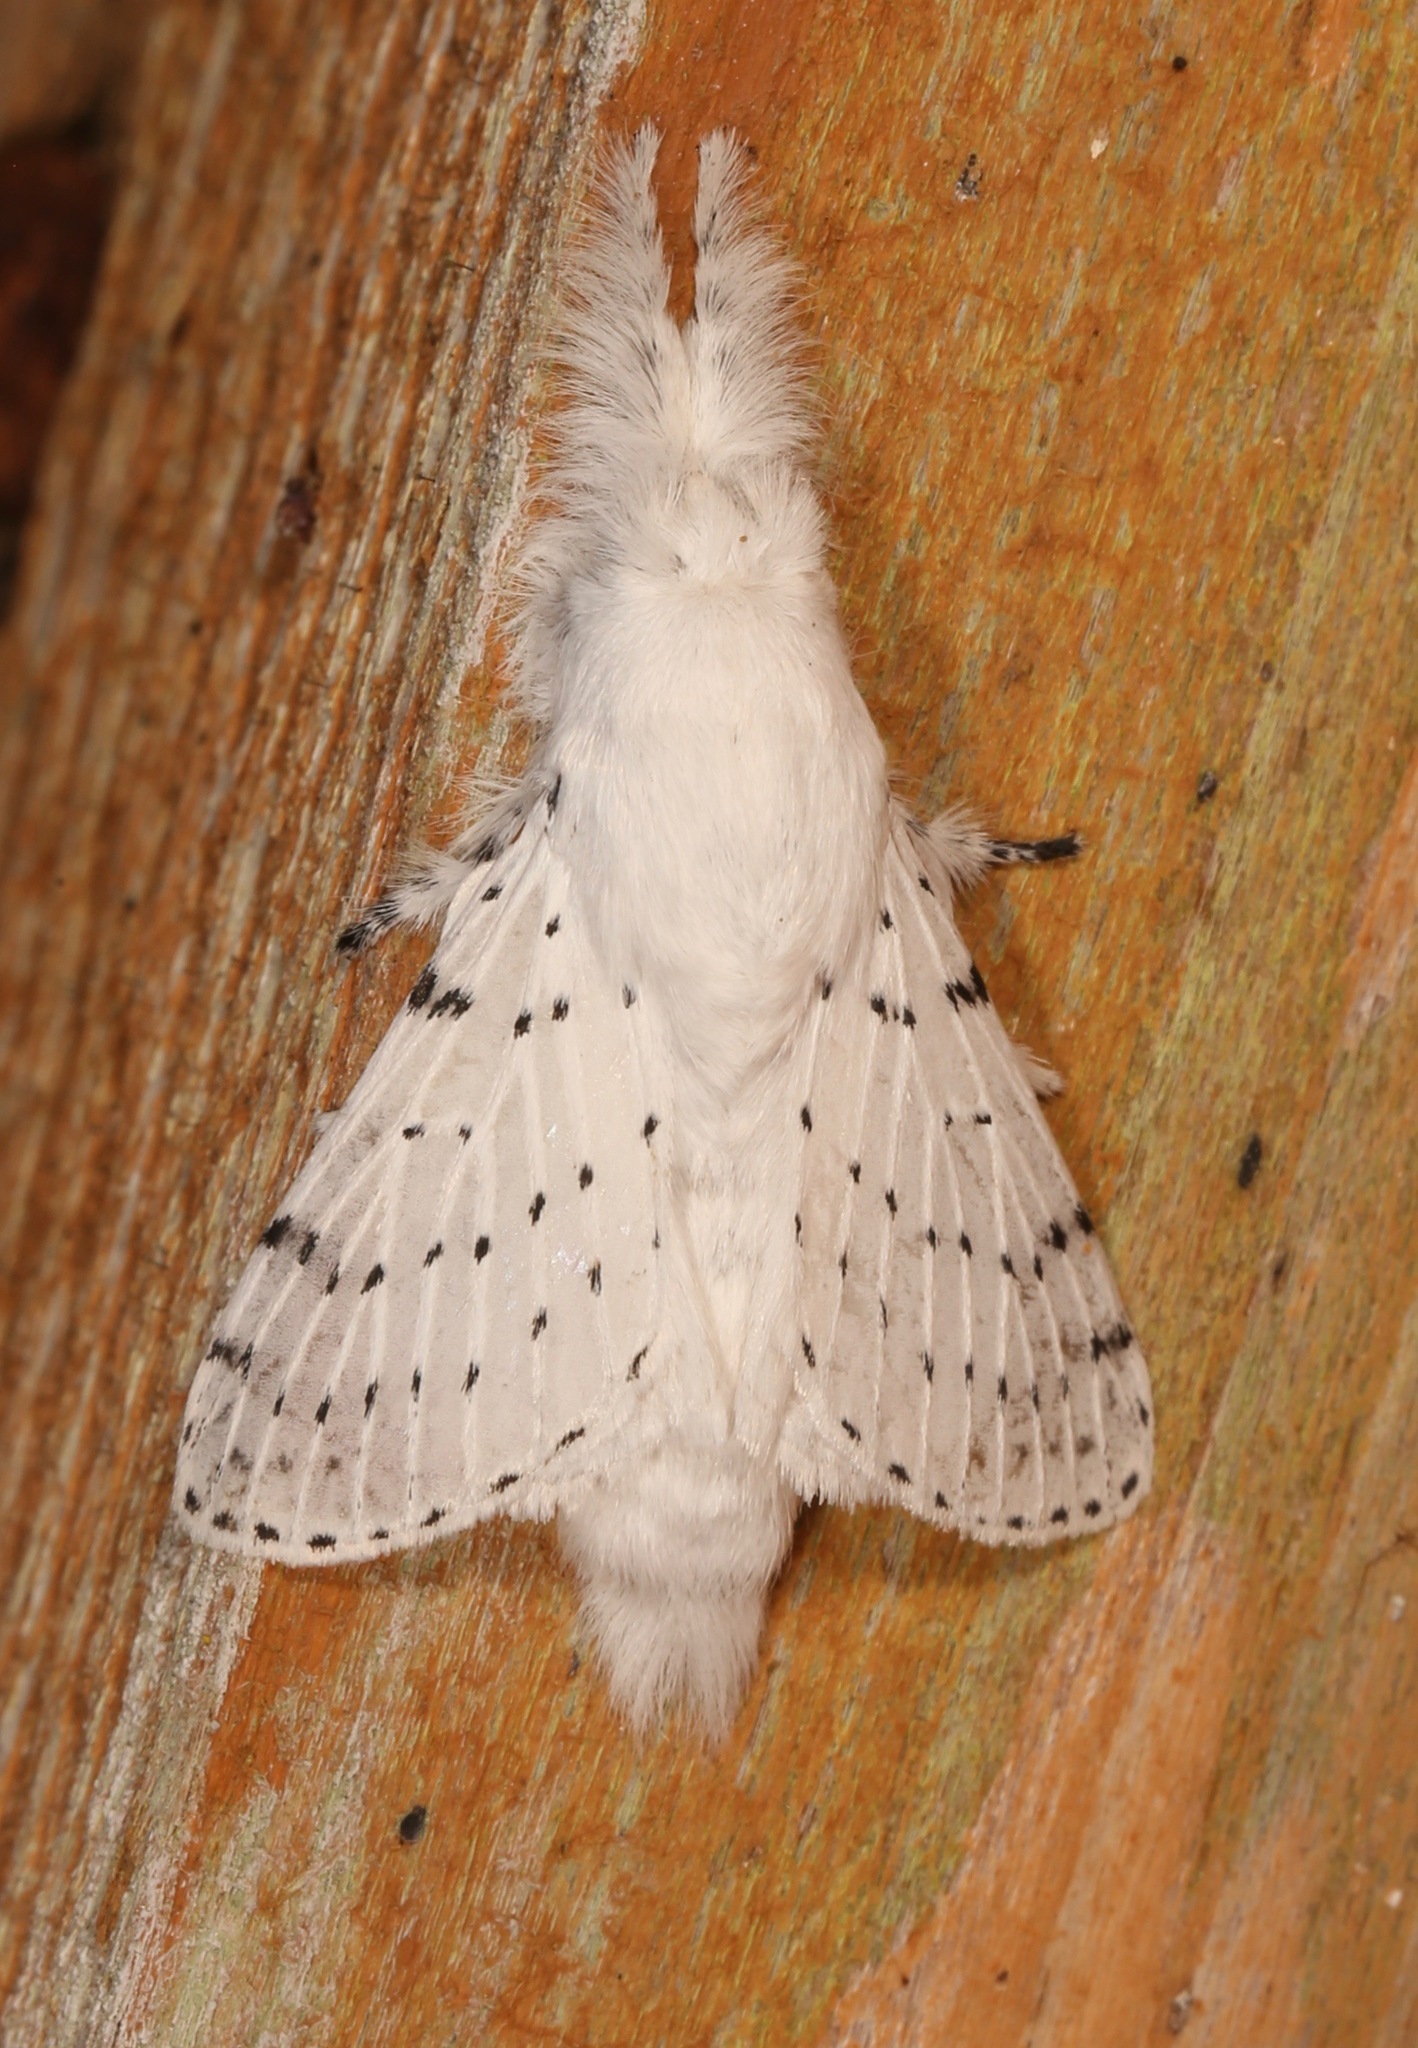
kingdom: Animalia
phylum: Arthropoda
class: Insecta
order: Lepidoptera
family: Lasiocampidae
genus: Artace
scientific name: Artace cribrarius
